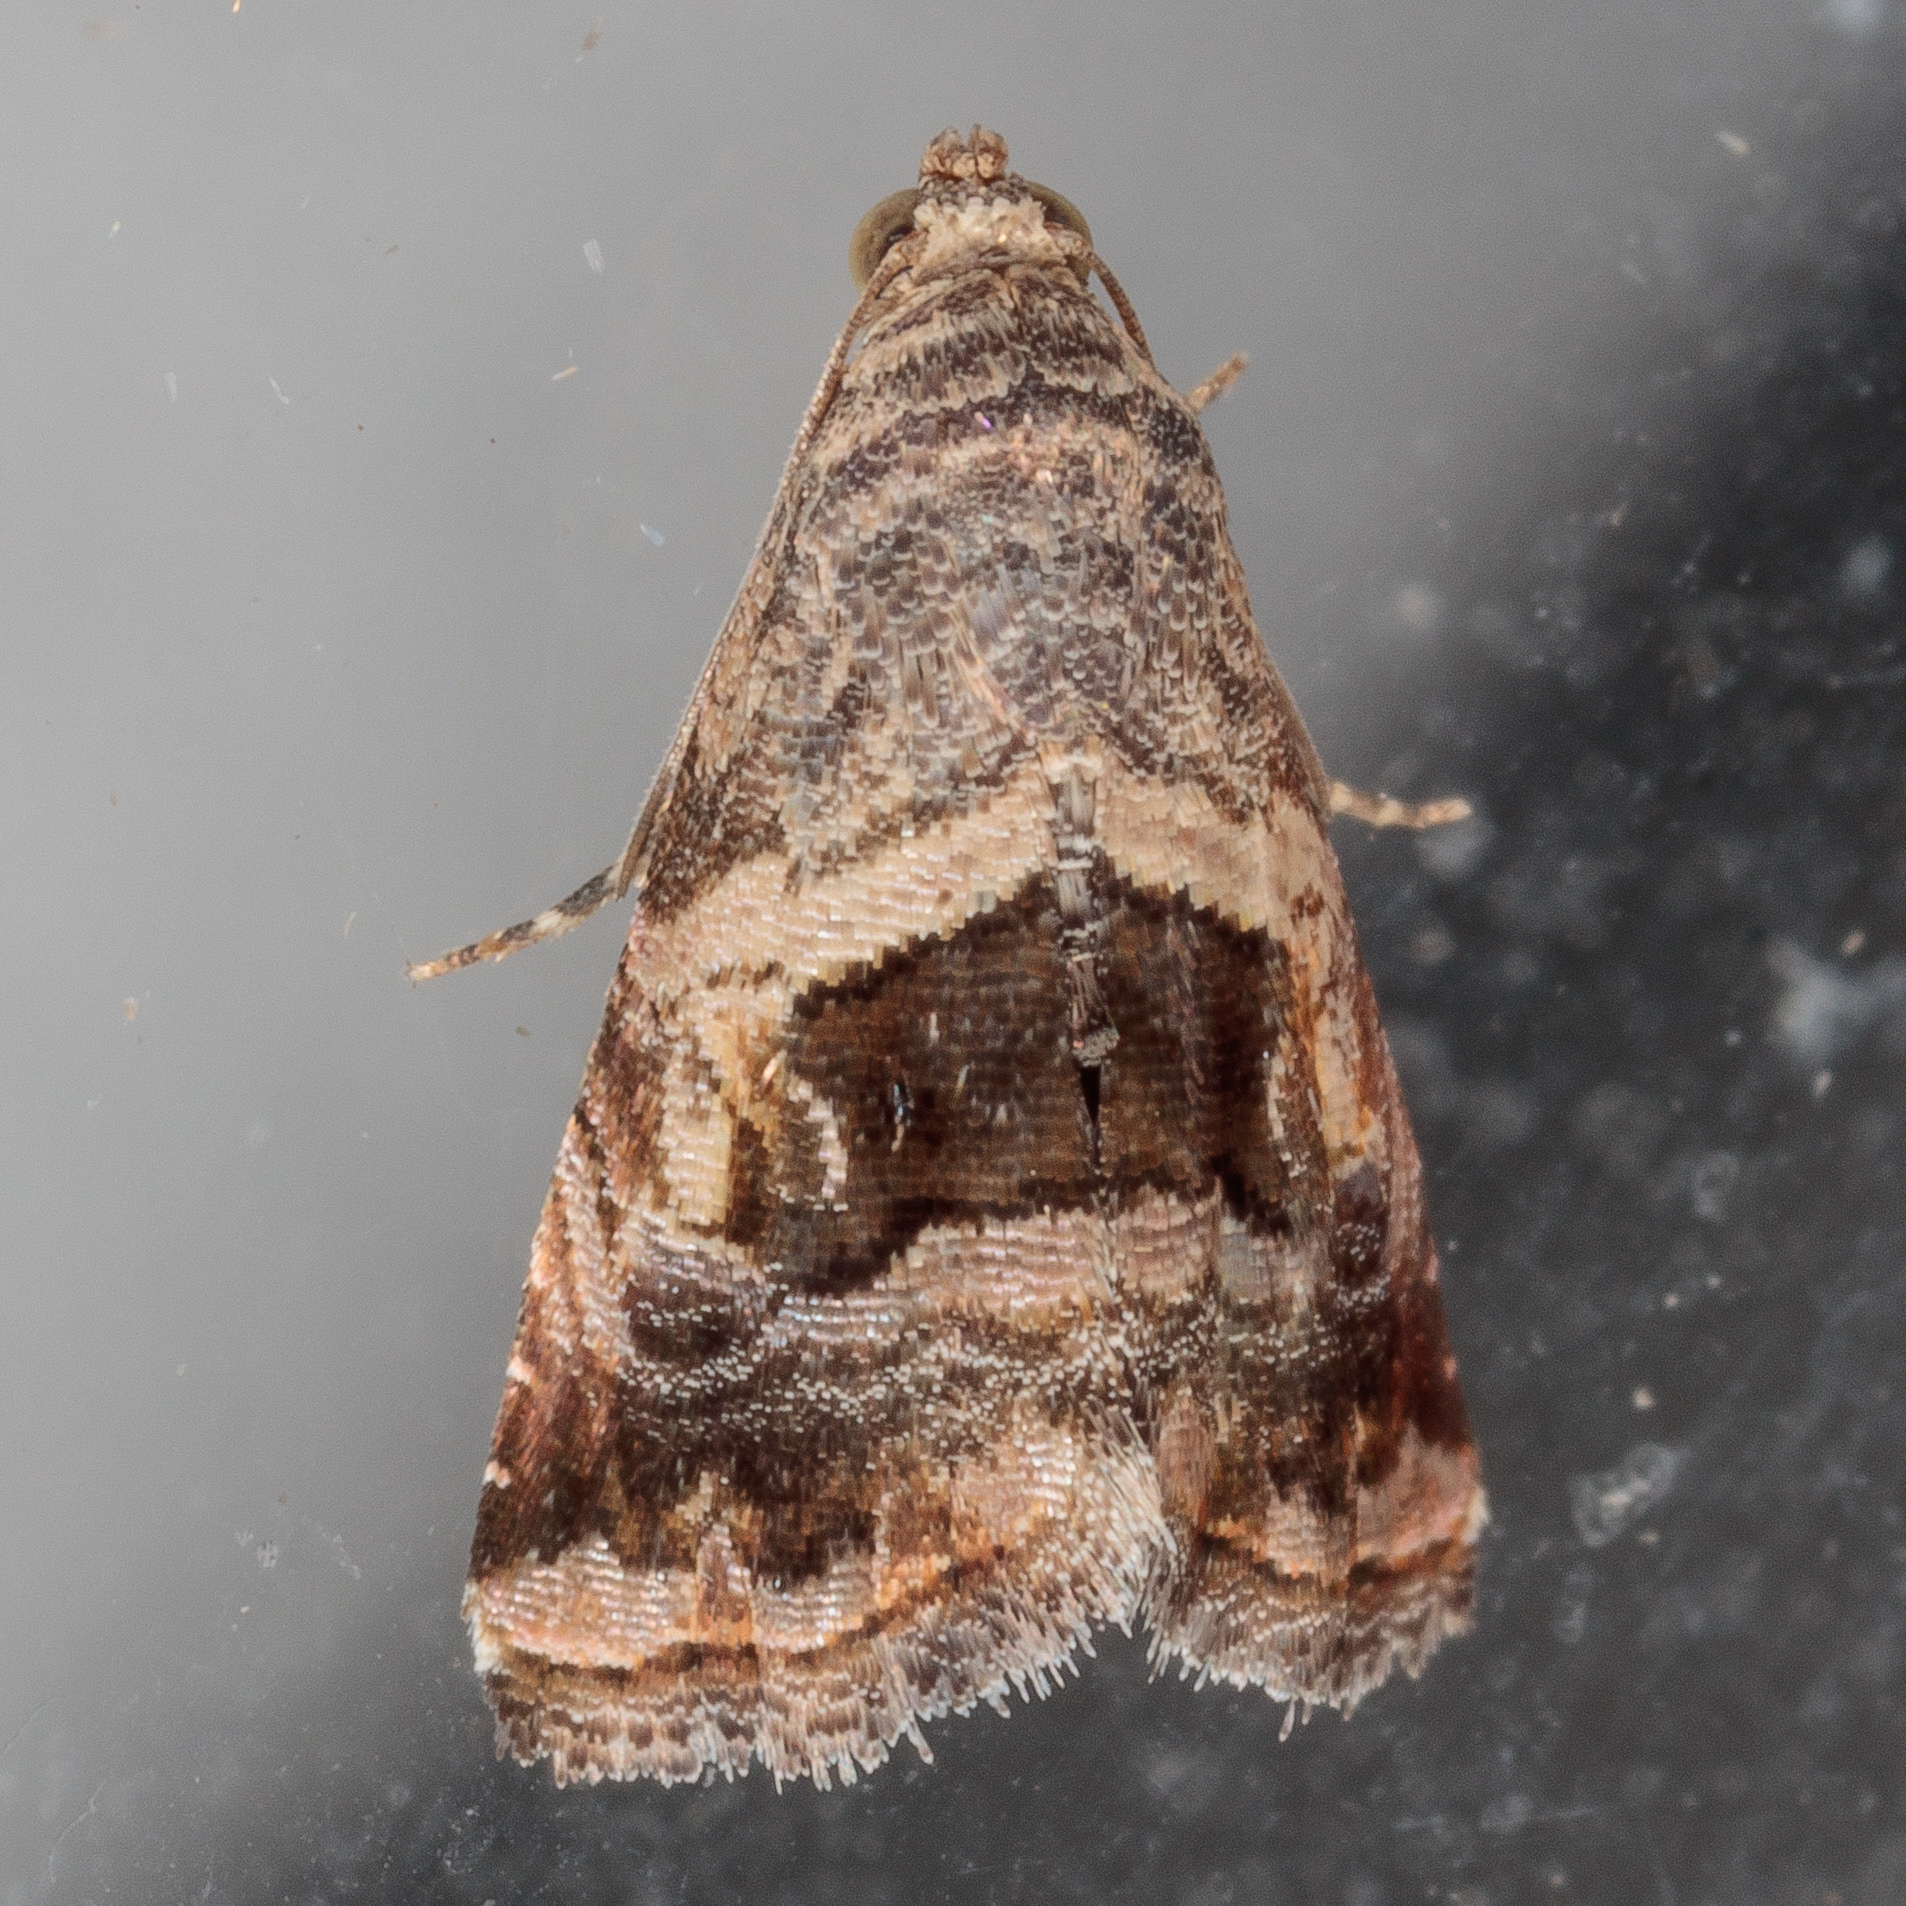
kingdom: Animalia
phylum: Arthropoda
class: Insecta
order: Lepidoptera
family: Noctuidae
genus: Tripudia
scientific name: Tripudia quadrifera
